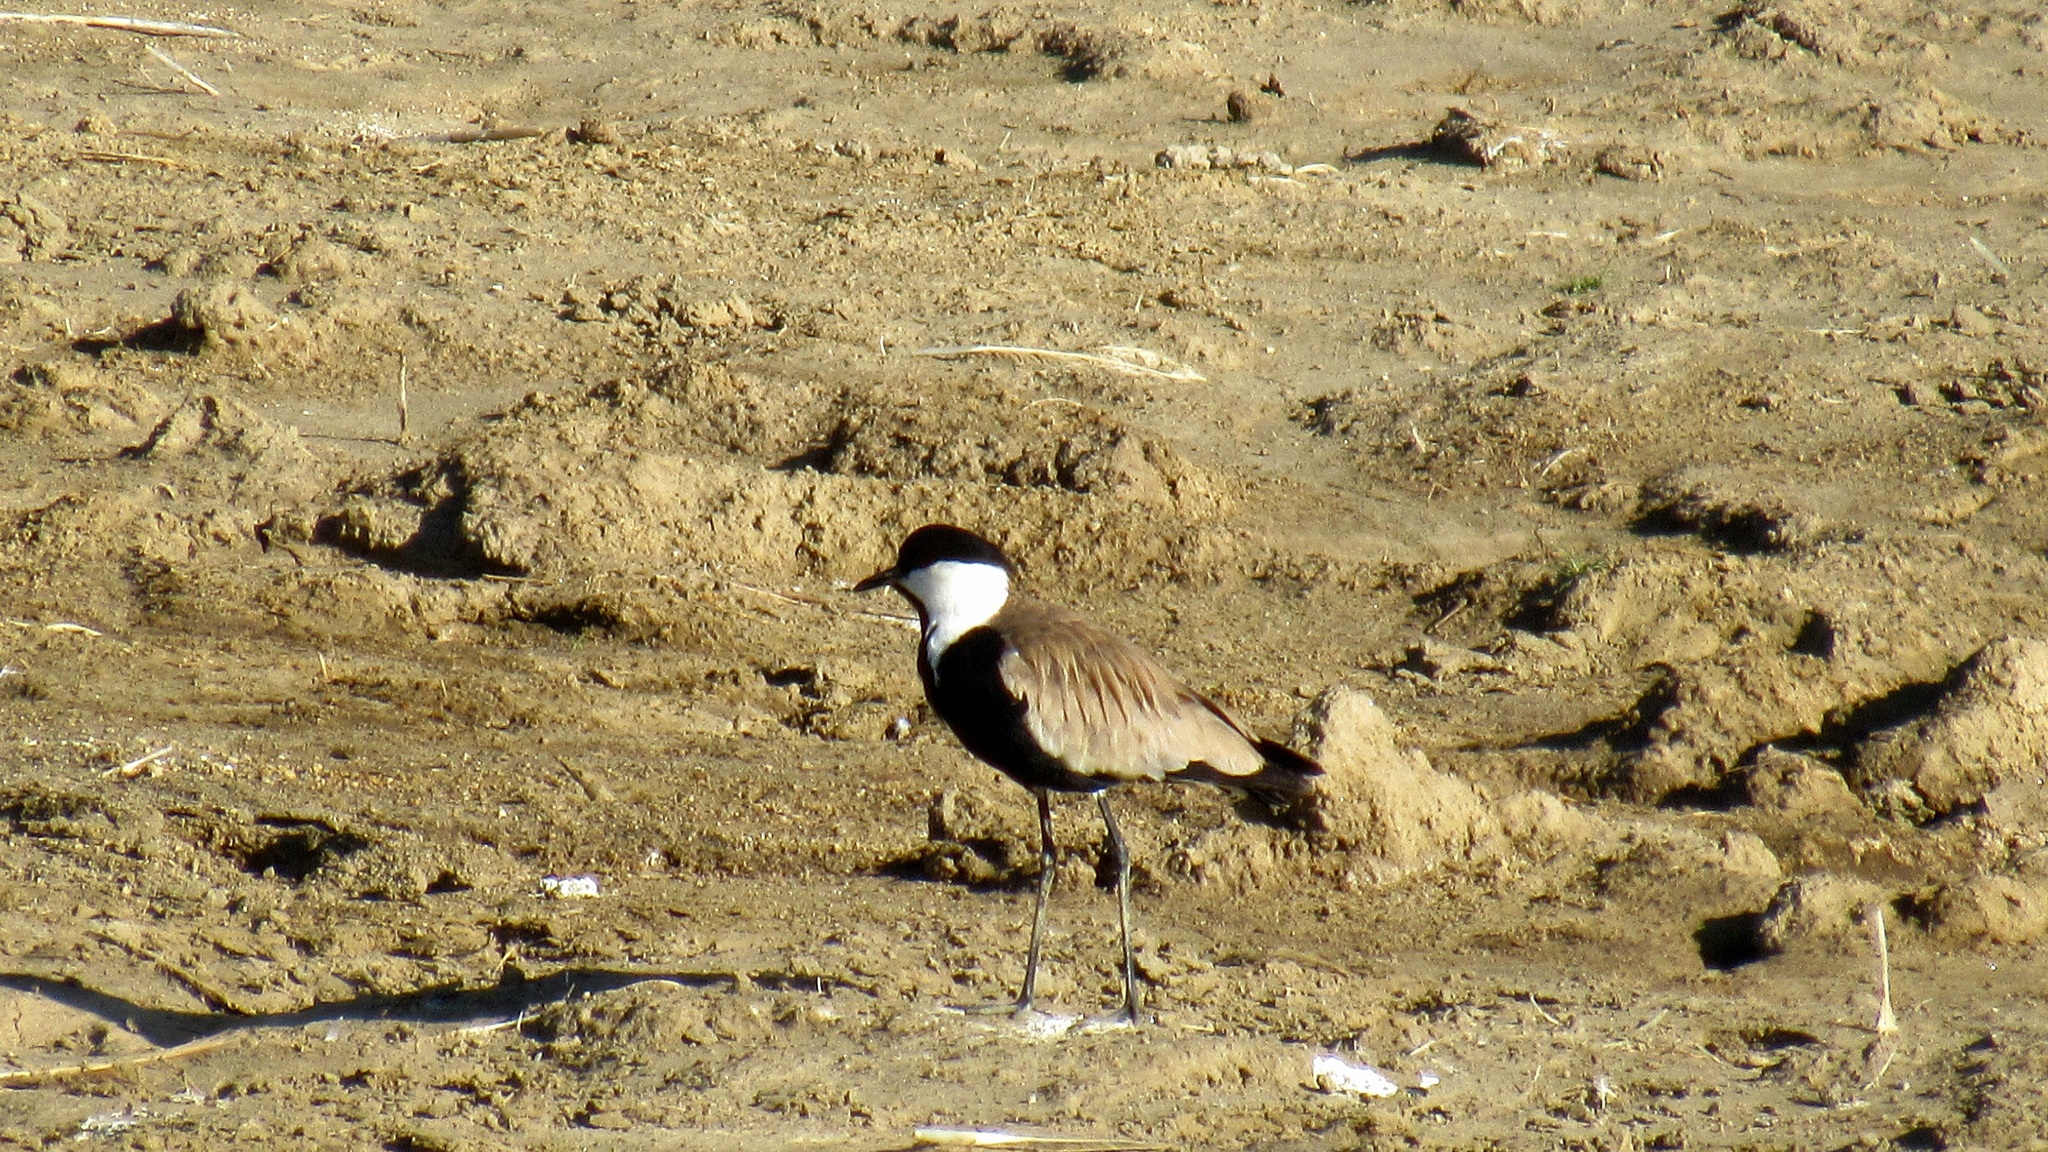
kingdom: Animalia
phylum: Chordata
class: Aves
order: Charadriiformes
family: Charadriidae
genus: Vanellus
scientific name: Vanellus spinosus
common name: Spur-winged lapwing
